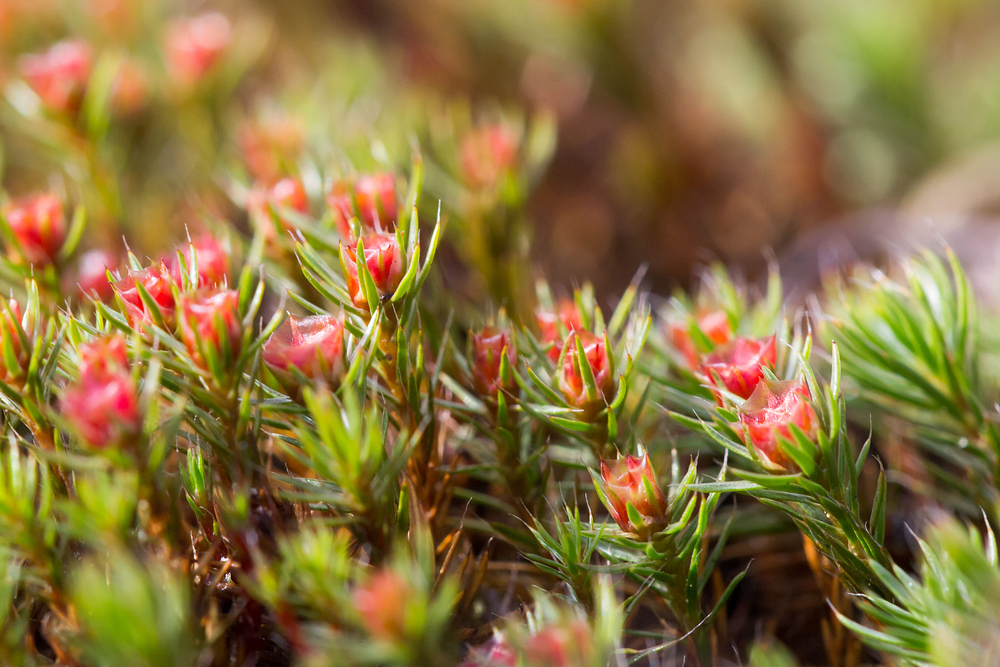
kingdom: Plantae
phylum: Bryophyta
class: Polytrichopsida
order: Polytrichales
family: Polytrichaceae
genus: Polytrichum
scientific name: Polytrichum piliferum
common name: Bristly haircap
